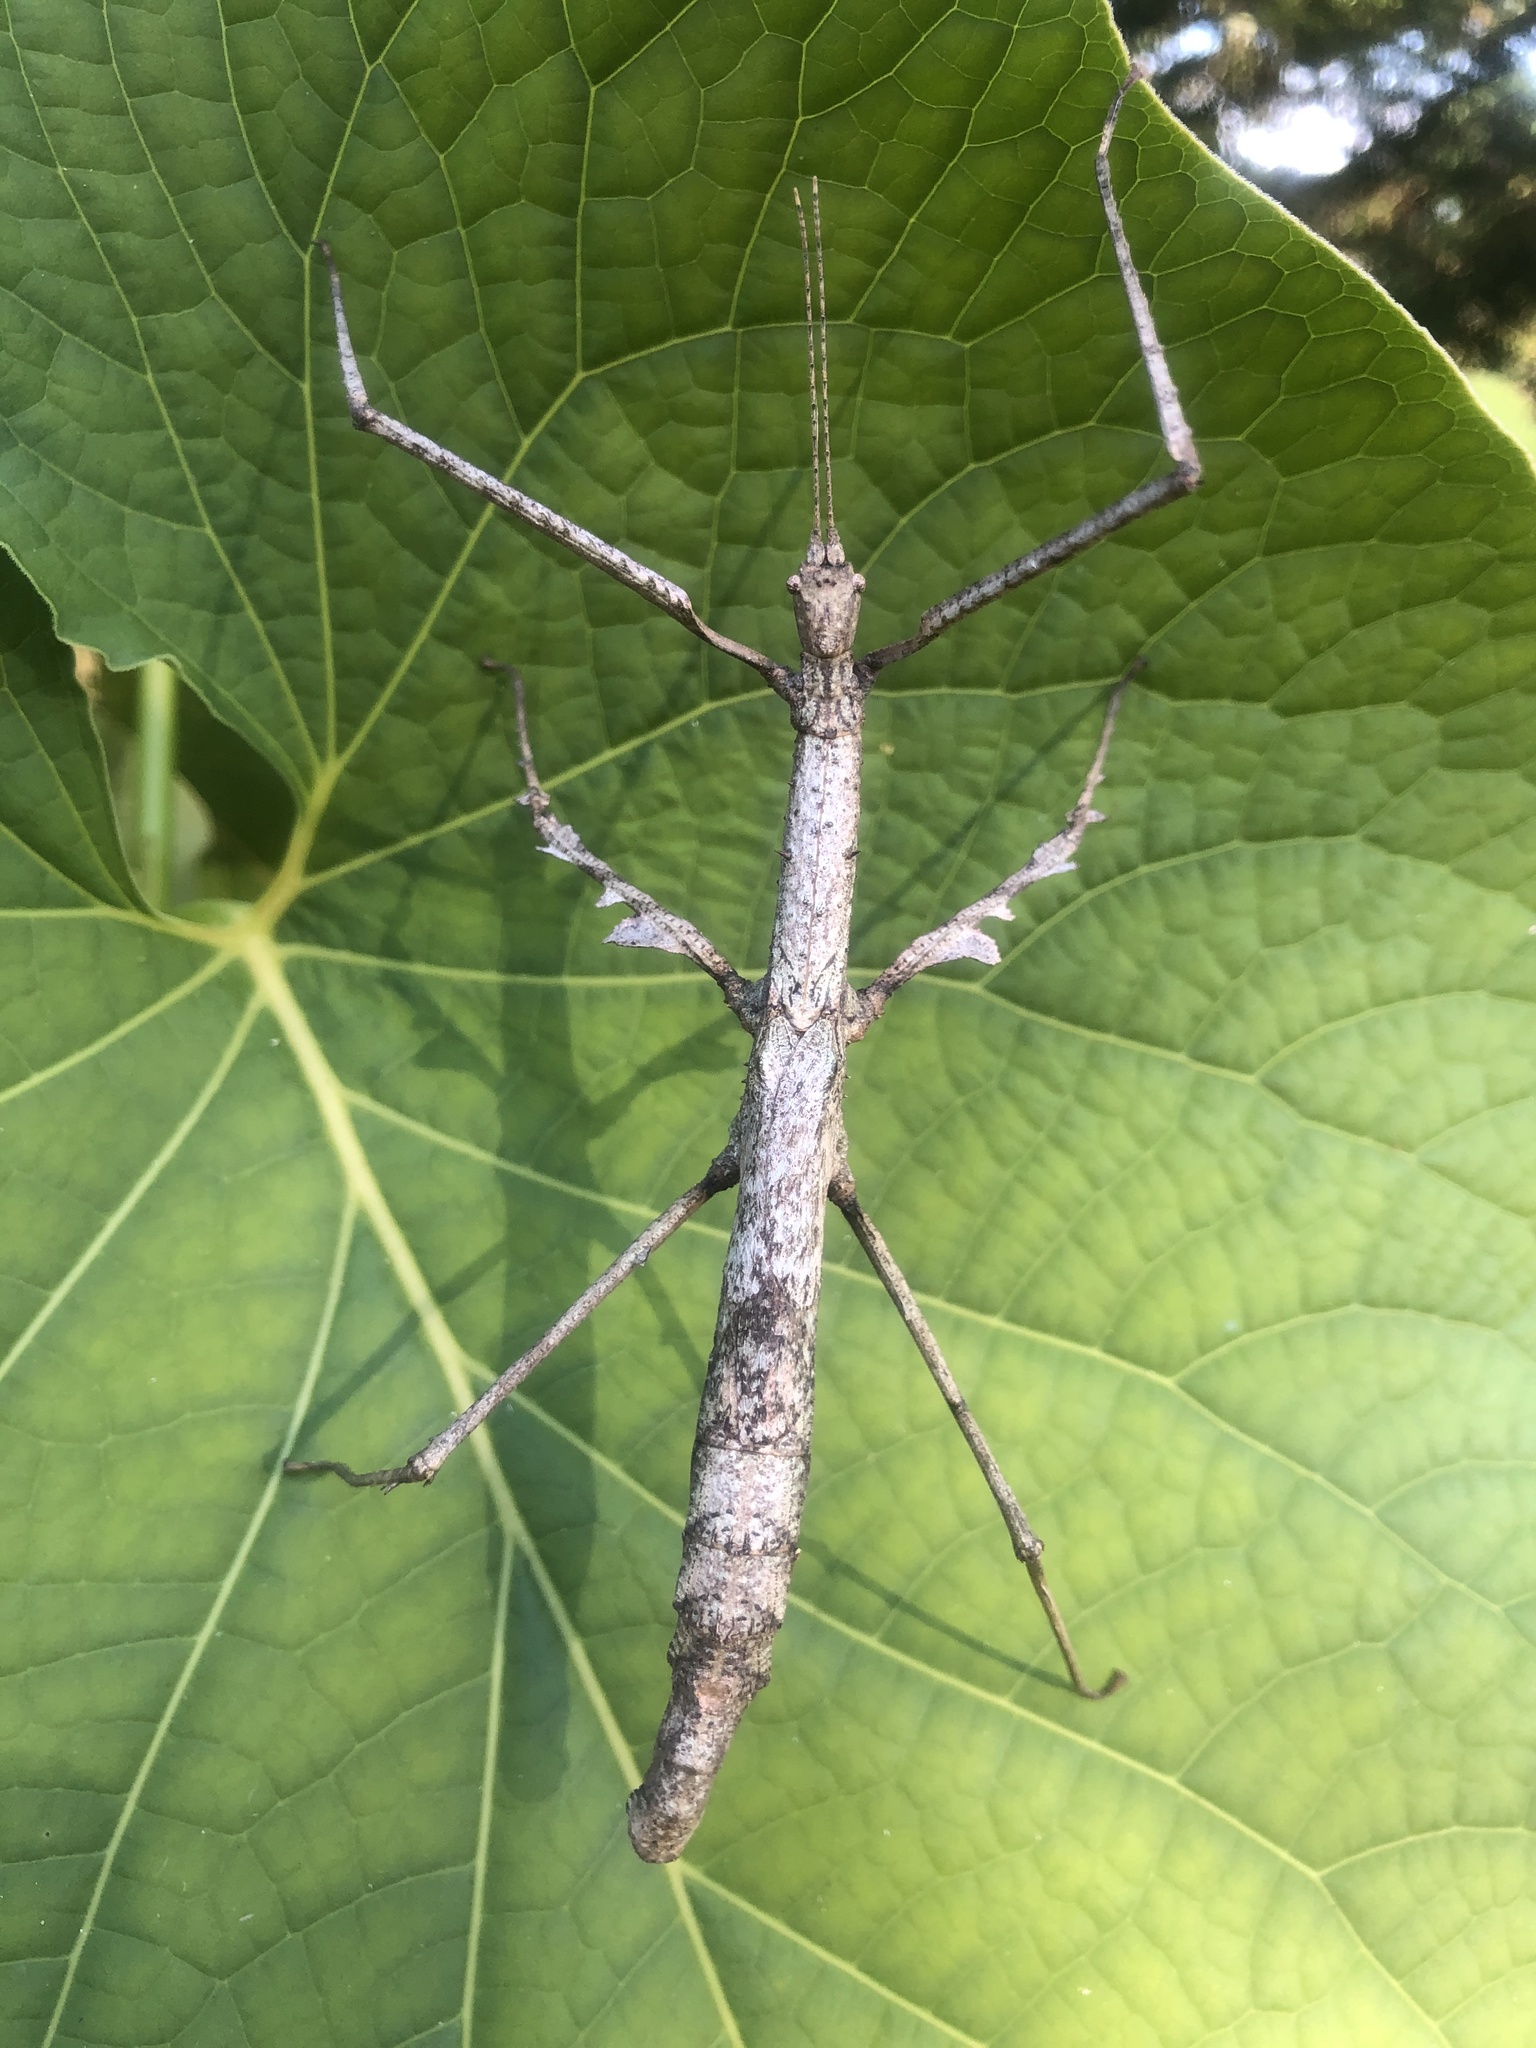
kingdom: Animalia
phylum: Arthropoda
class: Insecta
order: Phasmida
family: Phasmatidae
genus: Onchestus
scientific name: Onchestus gorgus
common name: Gorgon stick-insect
